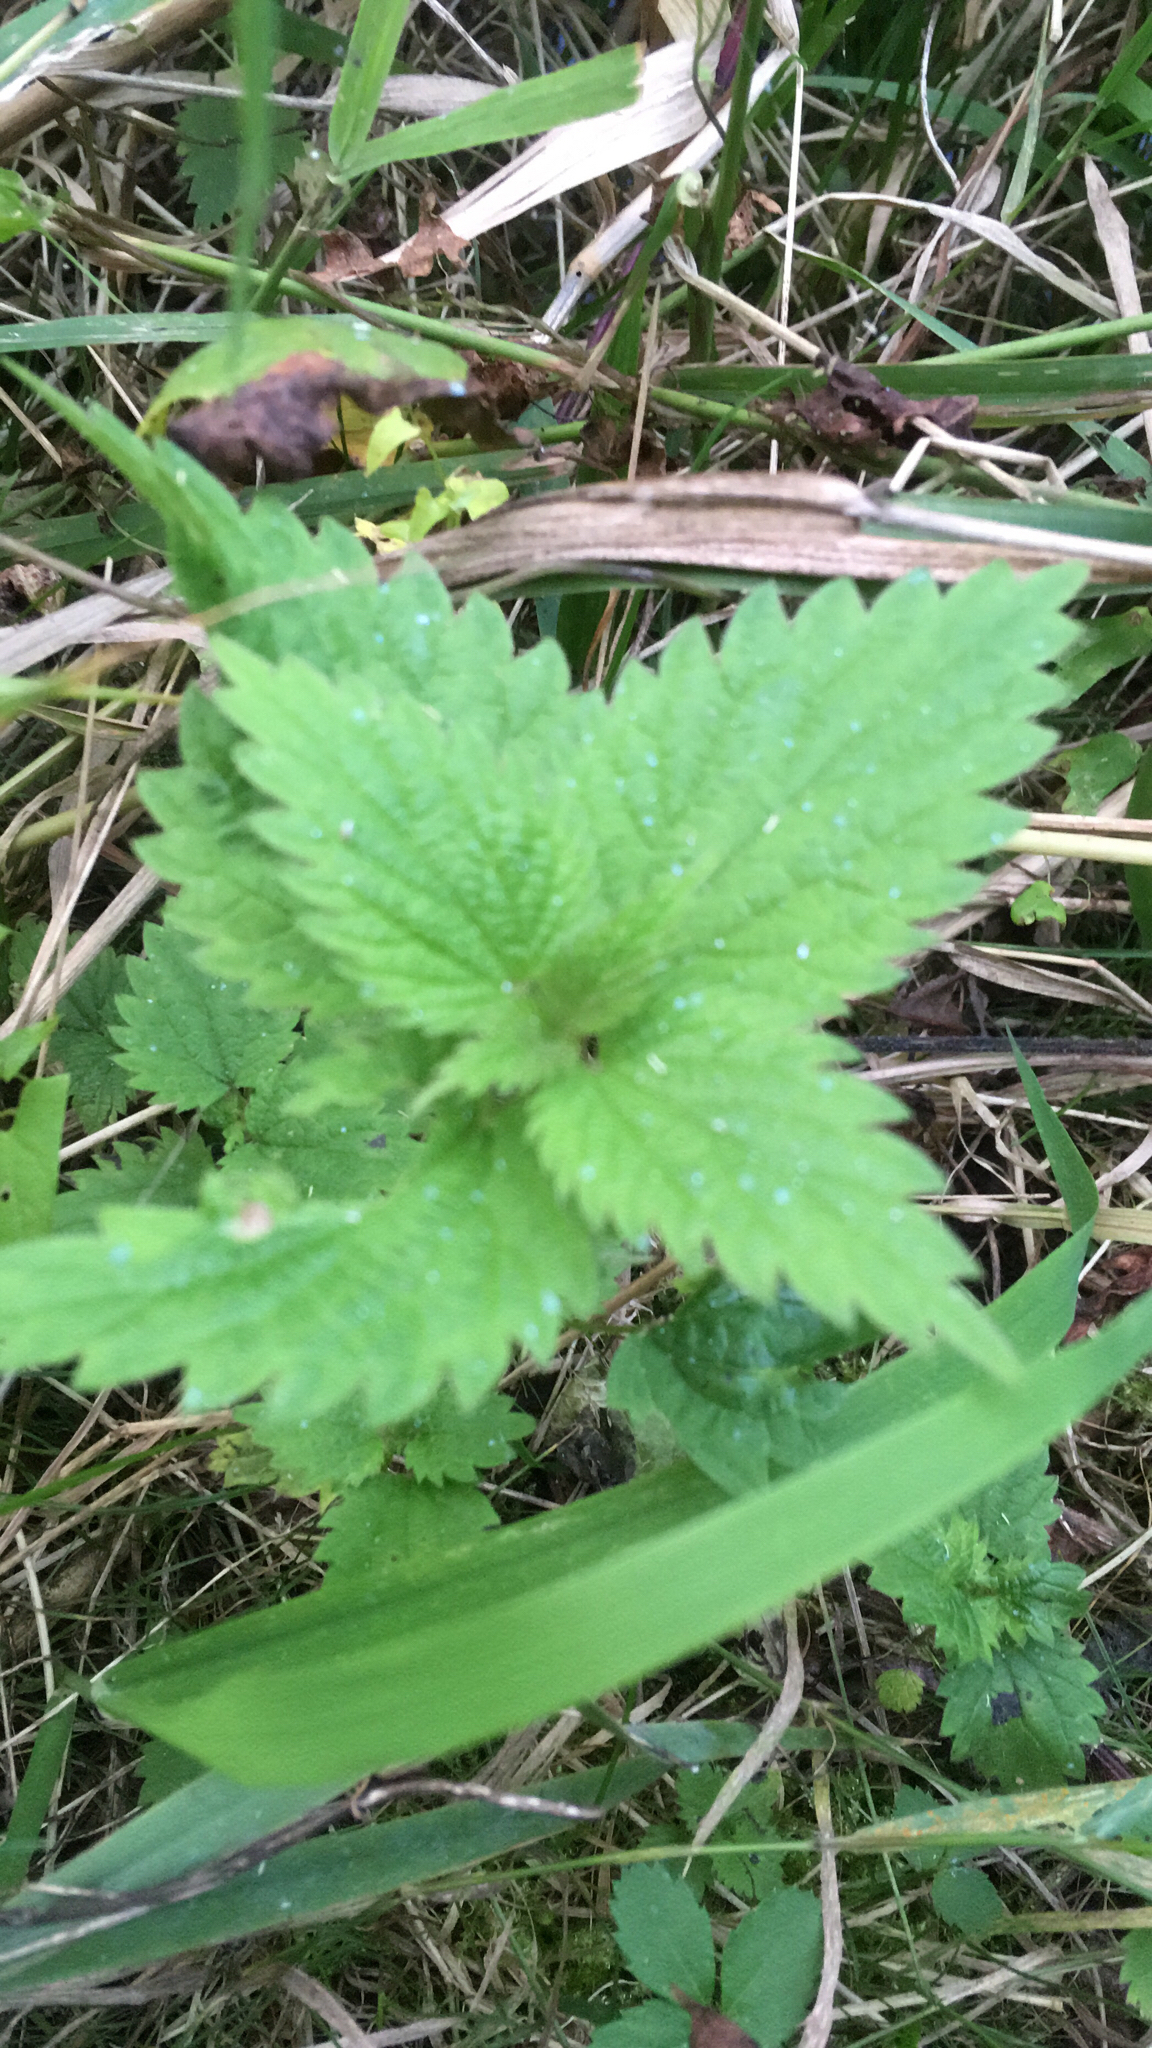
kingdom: Plantae
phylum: Tracheophyta
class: Magnoliopsida
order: Rosales
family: Urticaceae
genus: Urtica
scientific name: Urtica dioica
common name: Common nettle
